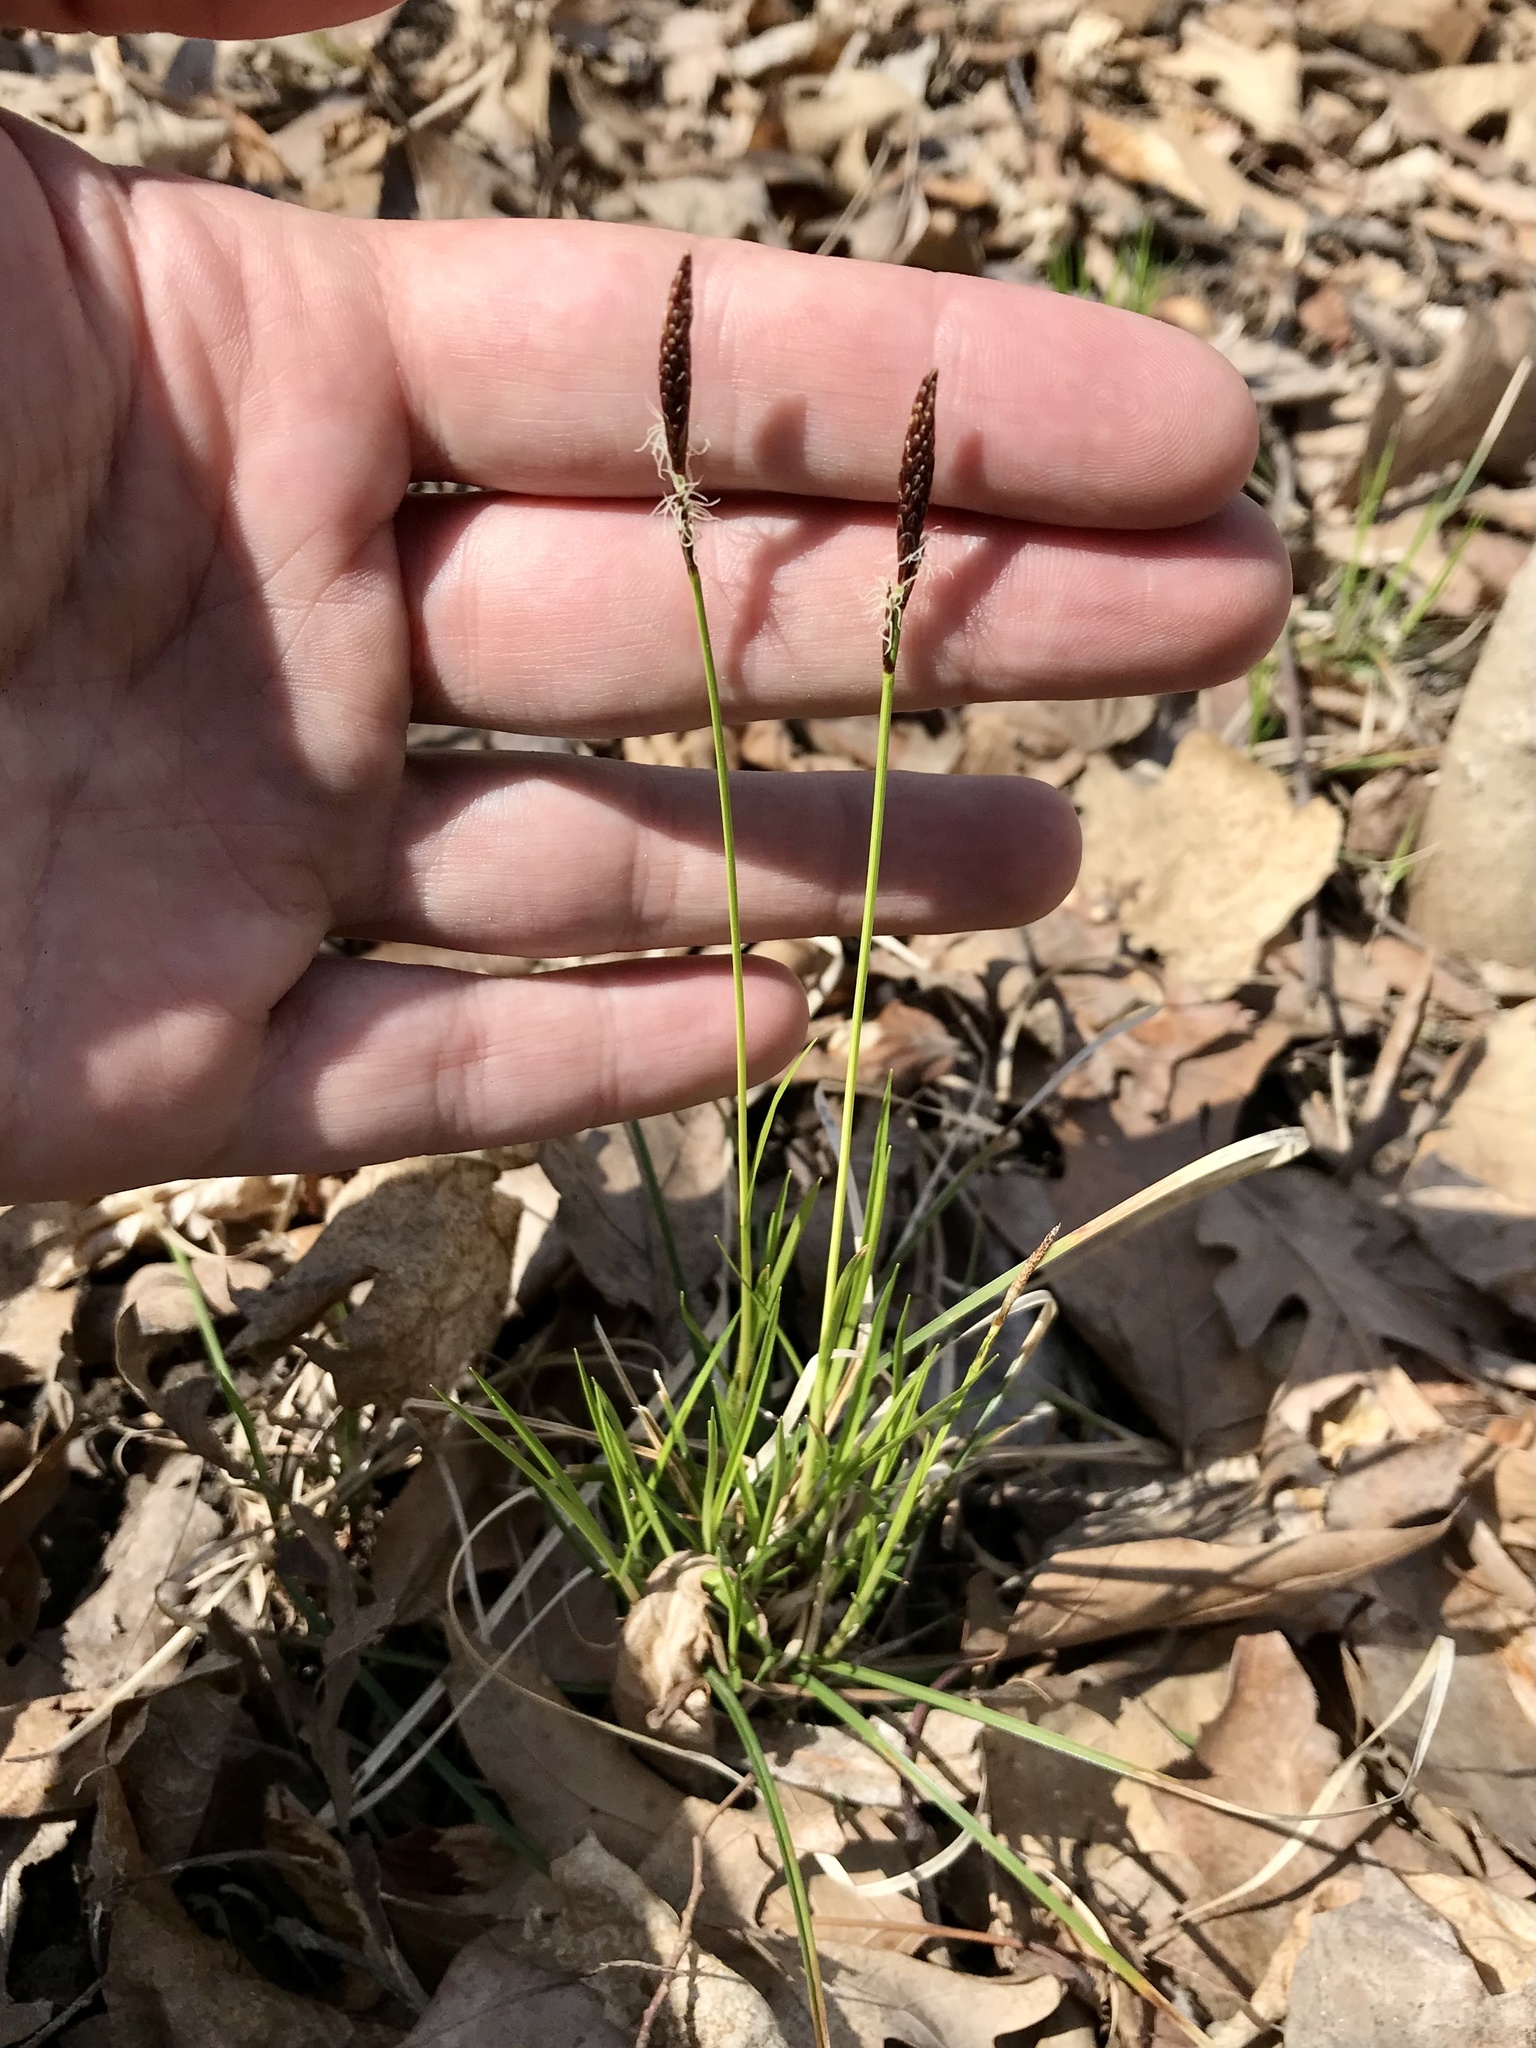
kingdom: Plantae
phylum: Tracheophyta
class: Liliopsida
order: Poales
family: Cyperaceae
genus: Carex
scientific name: Carex pensylvanica
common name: Common oak sedge
